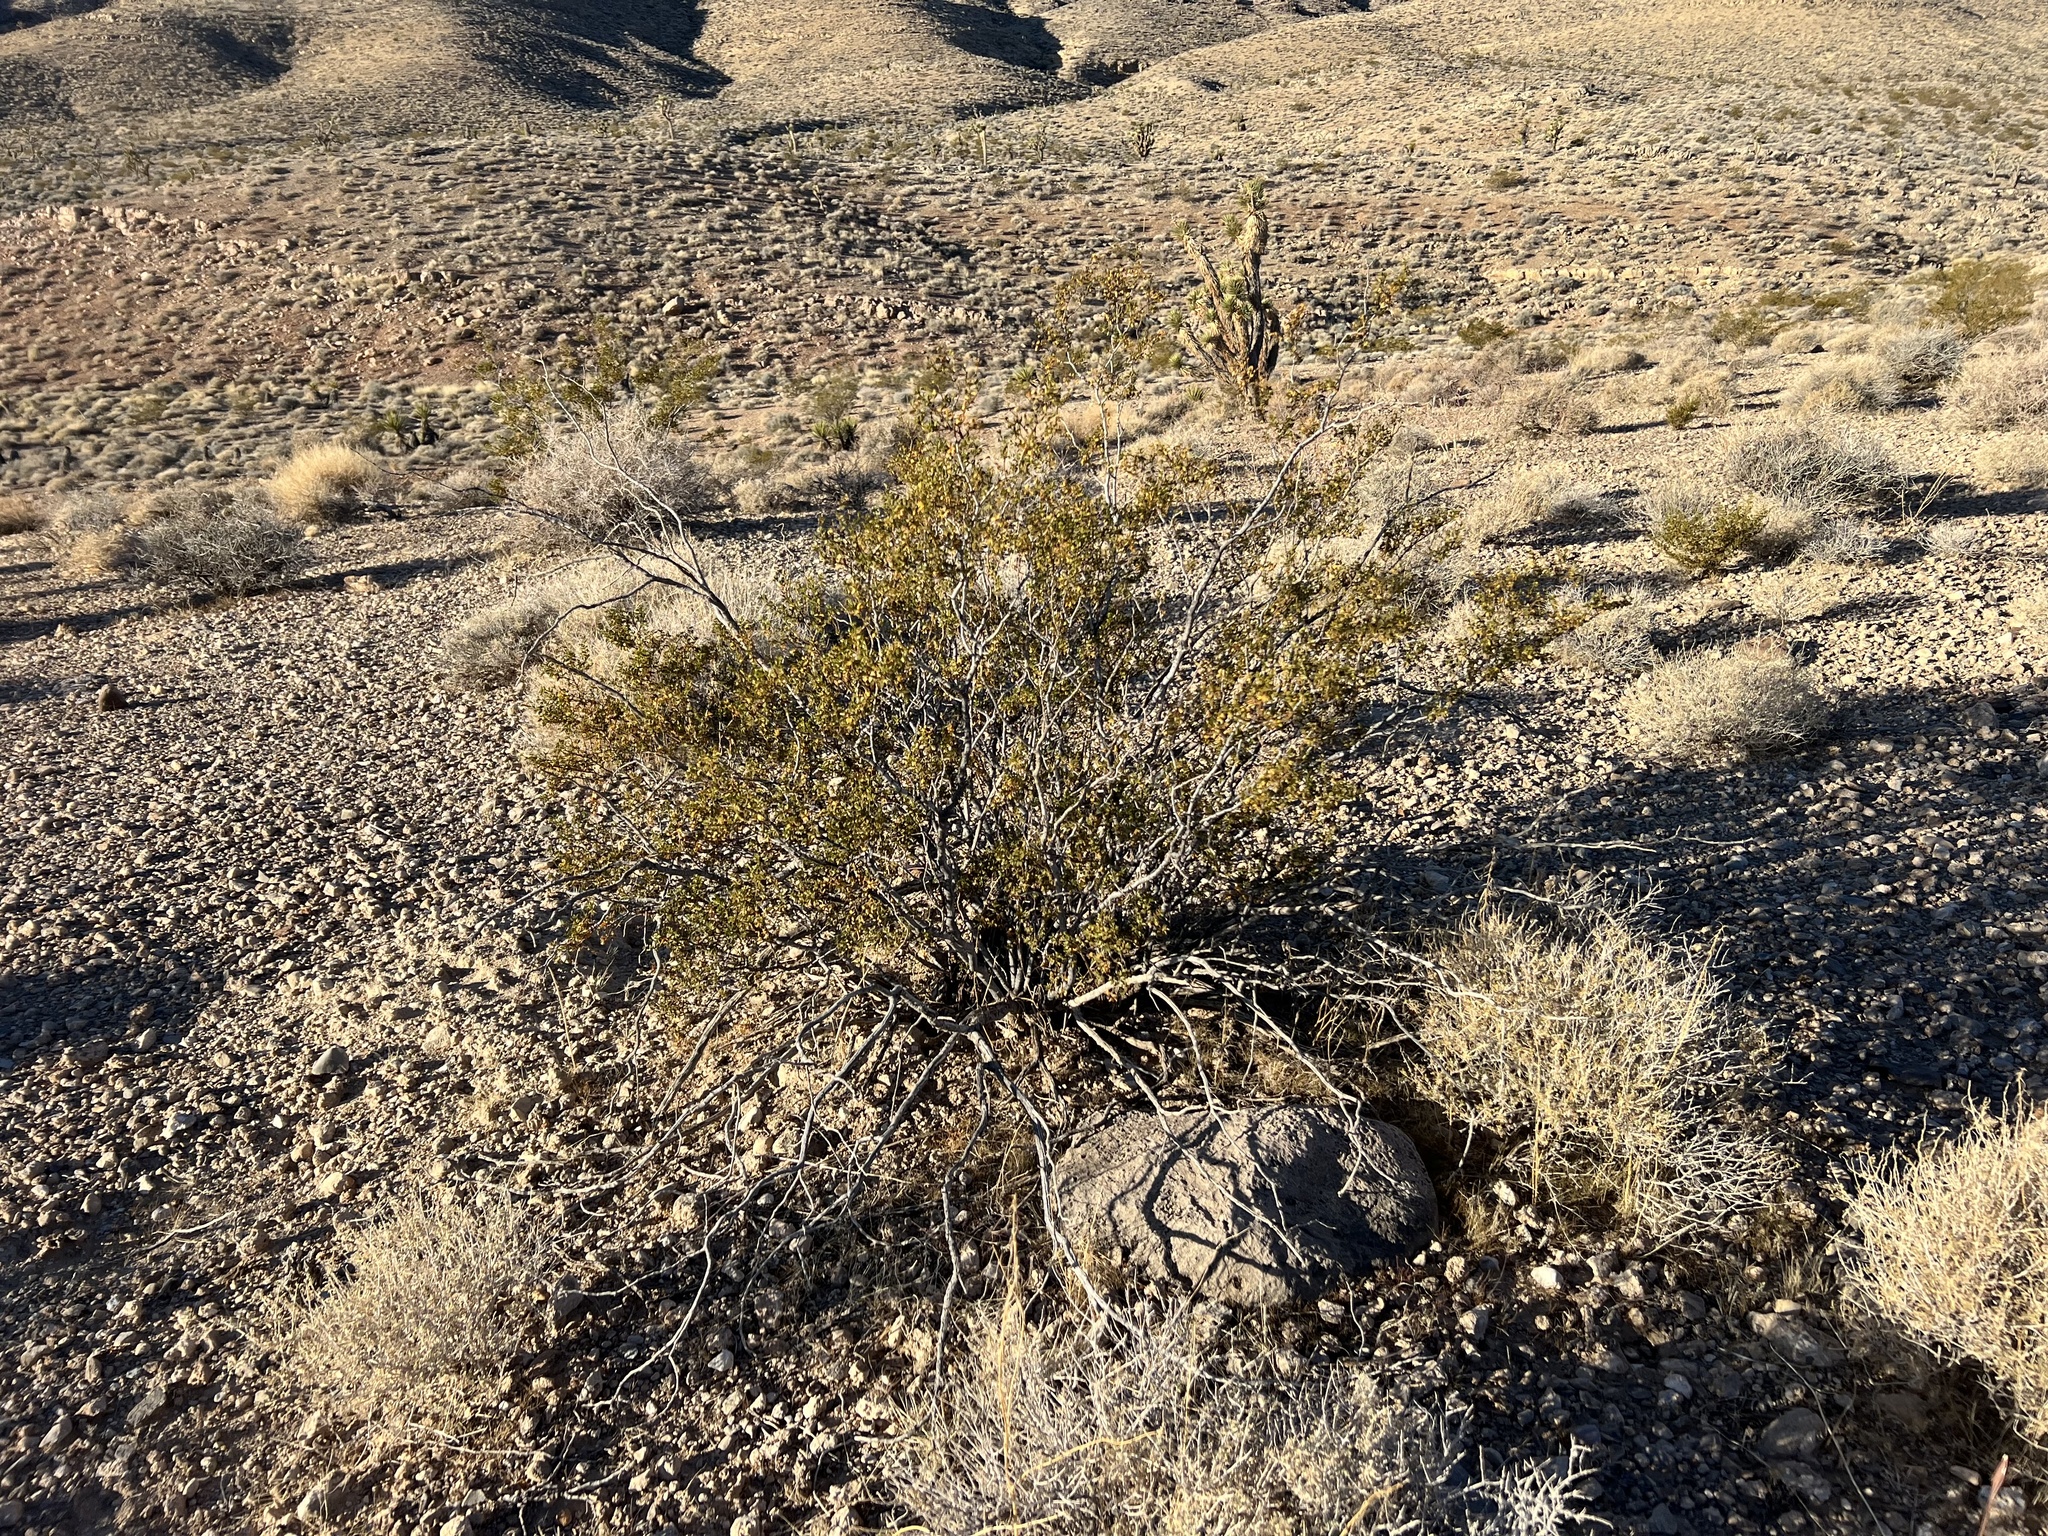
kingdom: Plantae
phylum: Tracheophyta
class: Magnoliopsida
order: Zygophyllales
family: Zygophyllaceae
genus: Larrea
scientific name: Larrea tridentata
